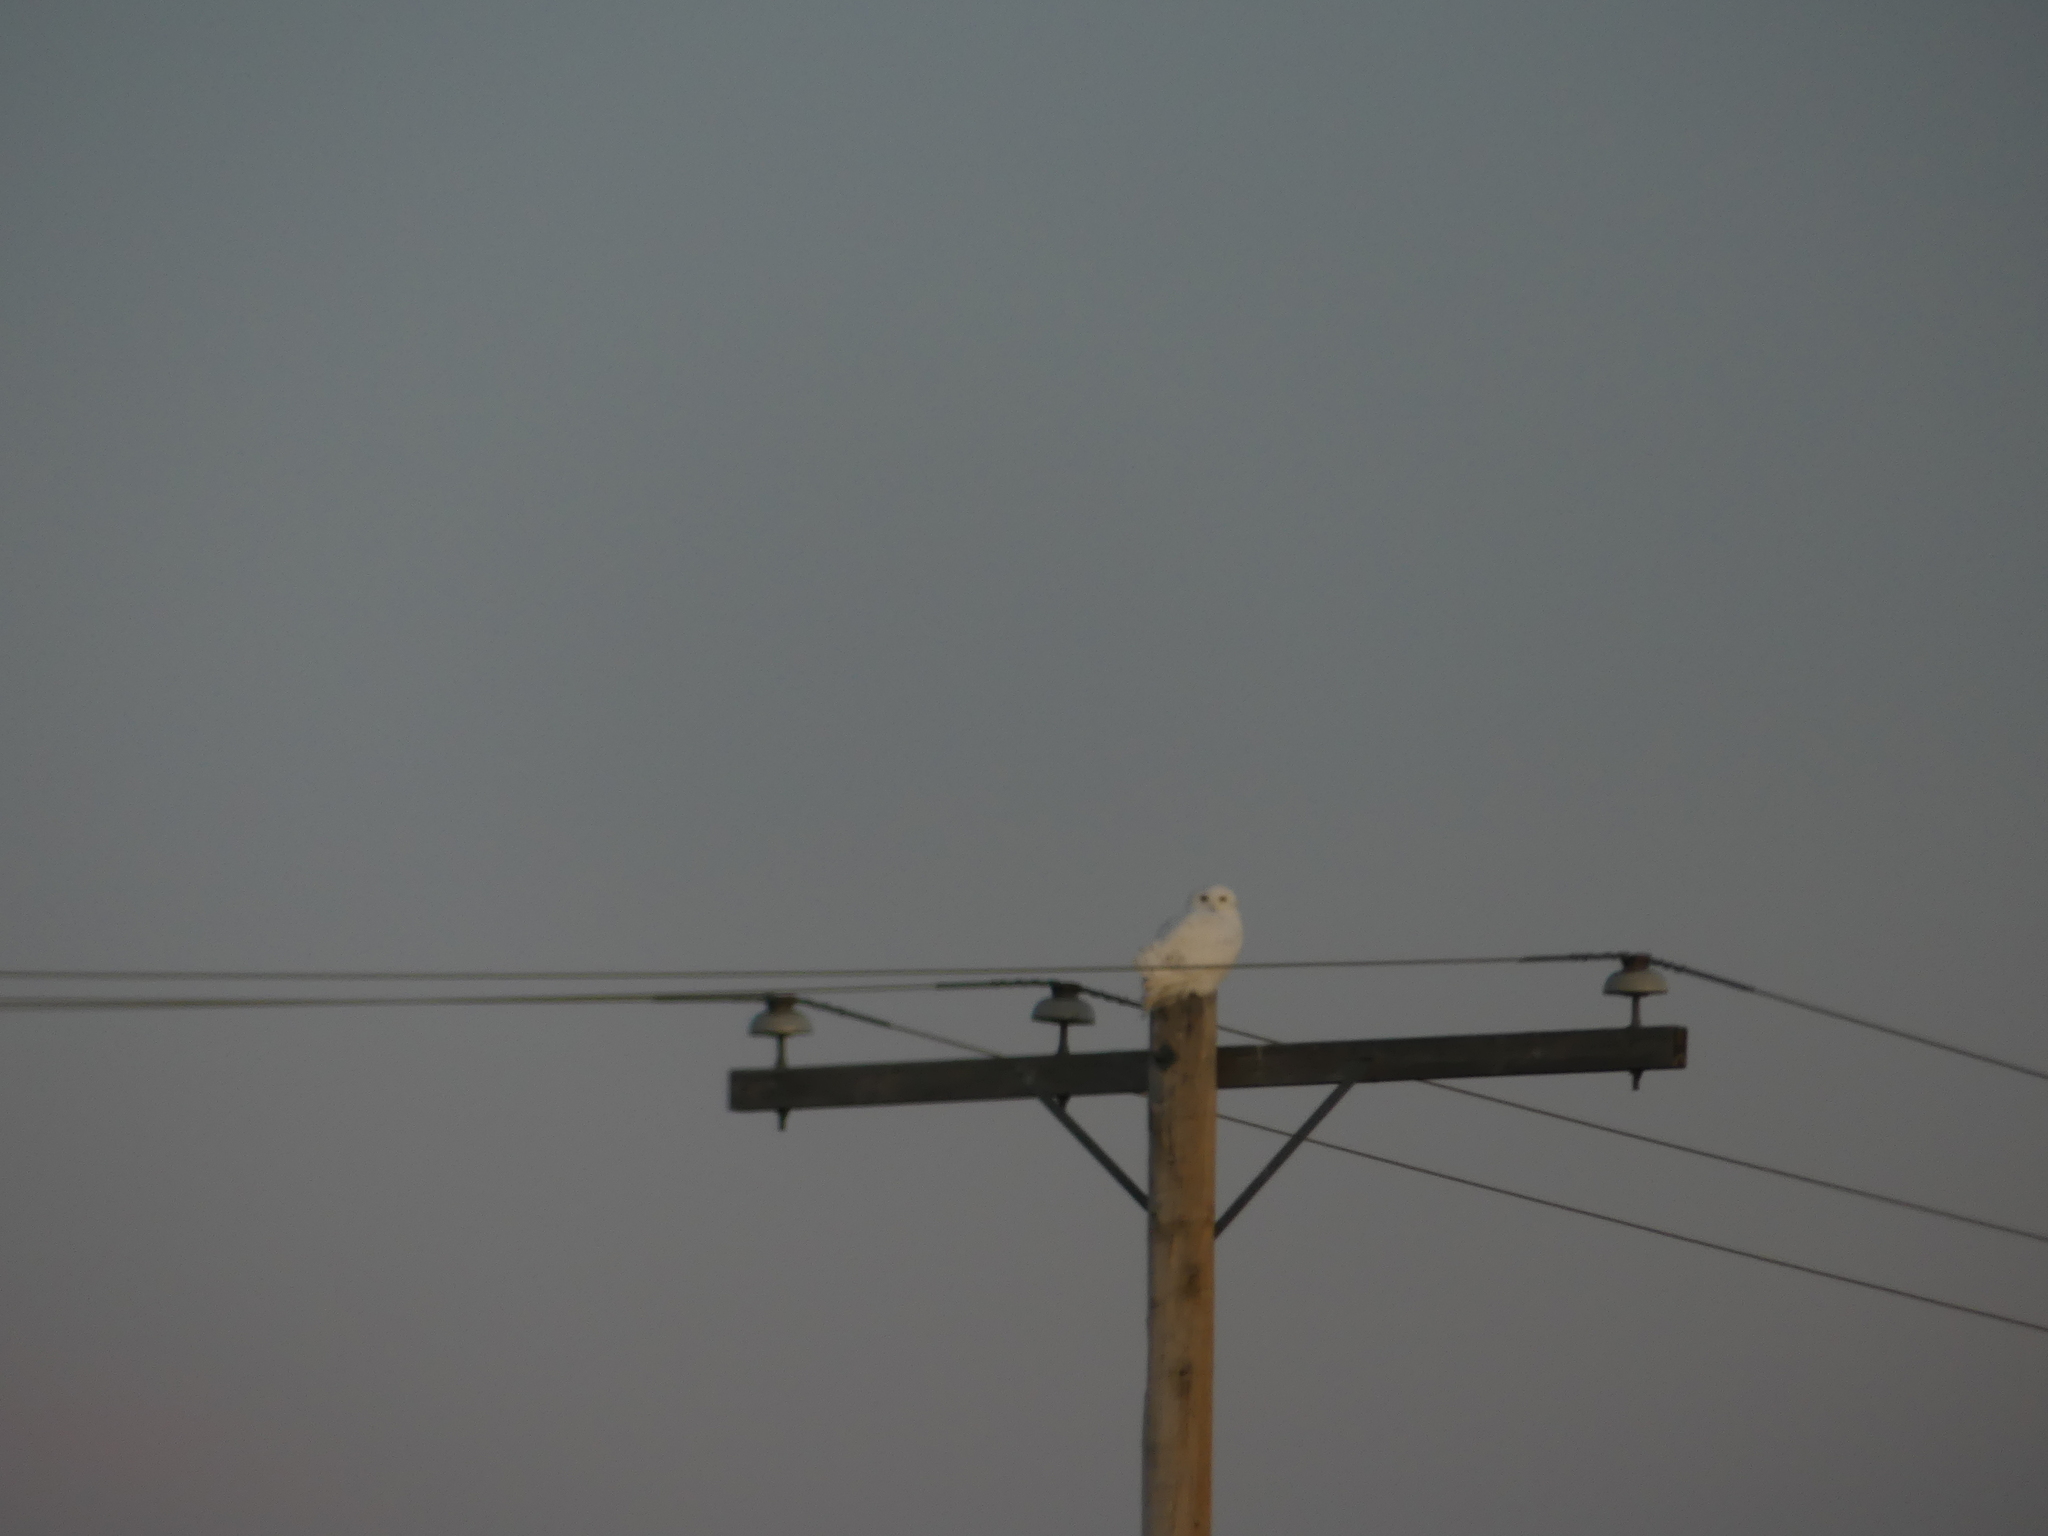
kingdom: Animalia
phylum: Chordata
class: Aves
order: Strigiformes
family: Strigidae
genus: Bubo
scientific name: Bubo scandiacus
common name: Snowy owl
